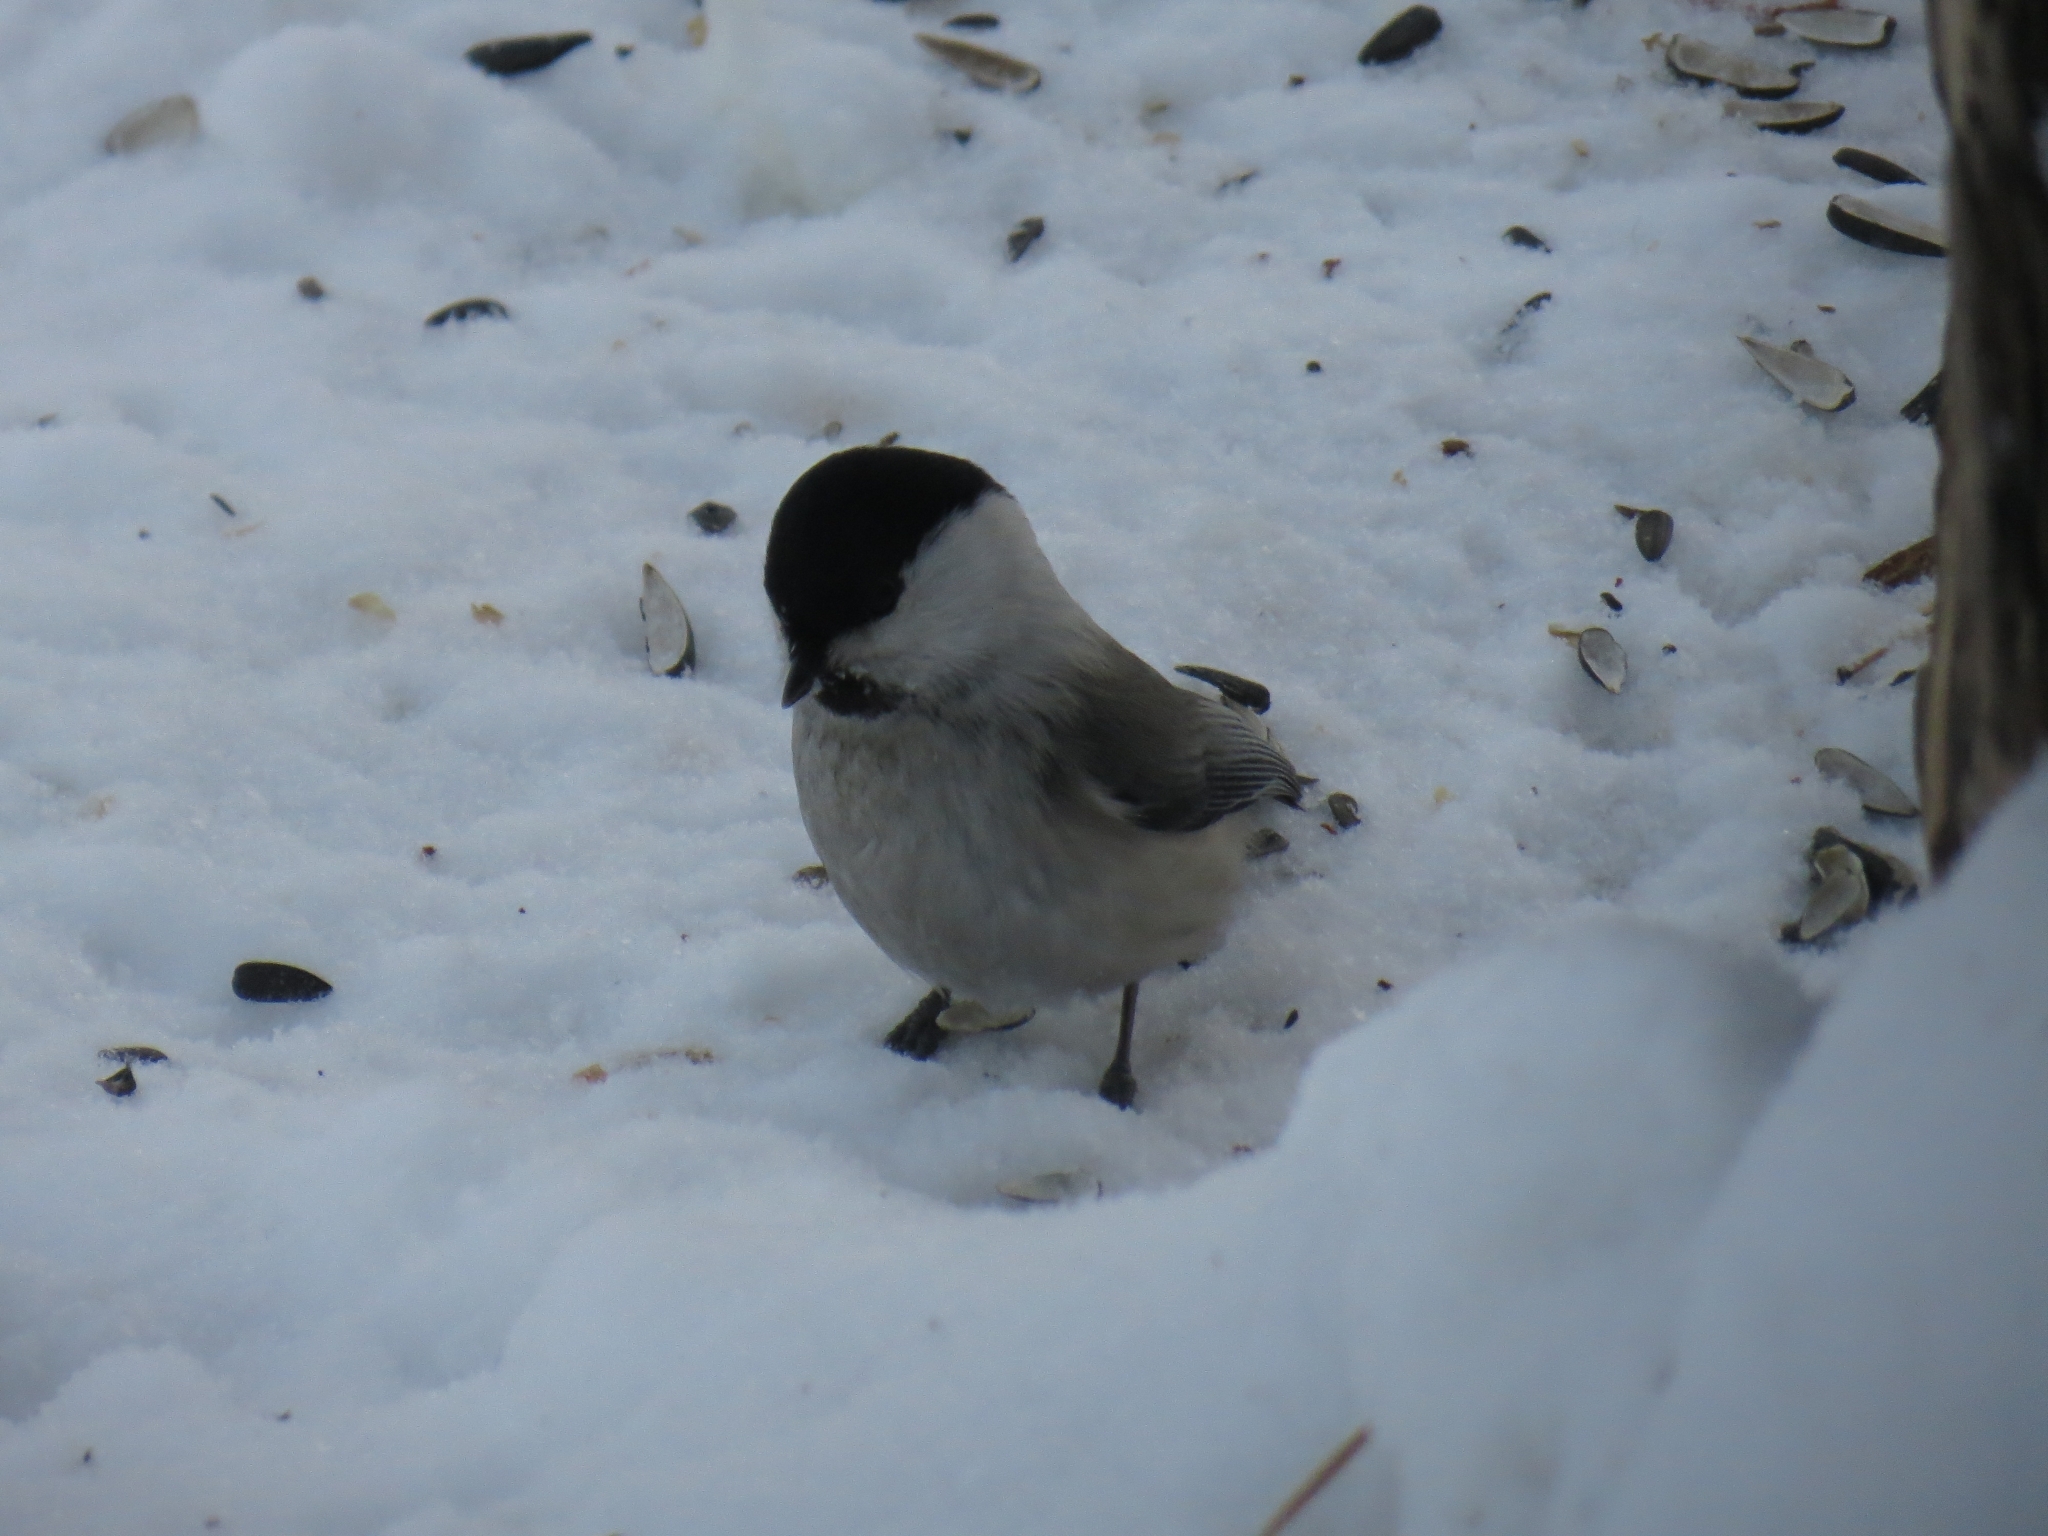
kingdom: Animalia
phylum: Chordata
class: Aves
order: Passeriformes
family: Paridae
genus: Poecile
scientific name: Poecile montanus
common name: Willow tit
